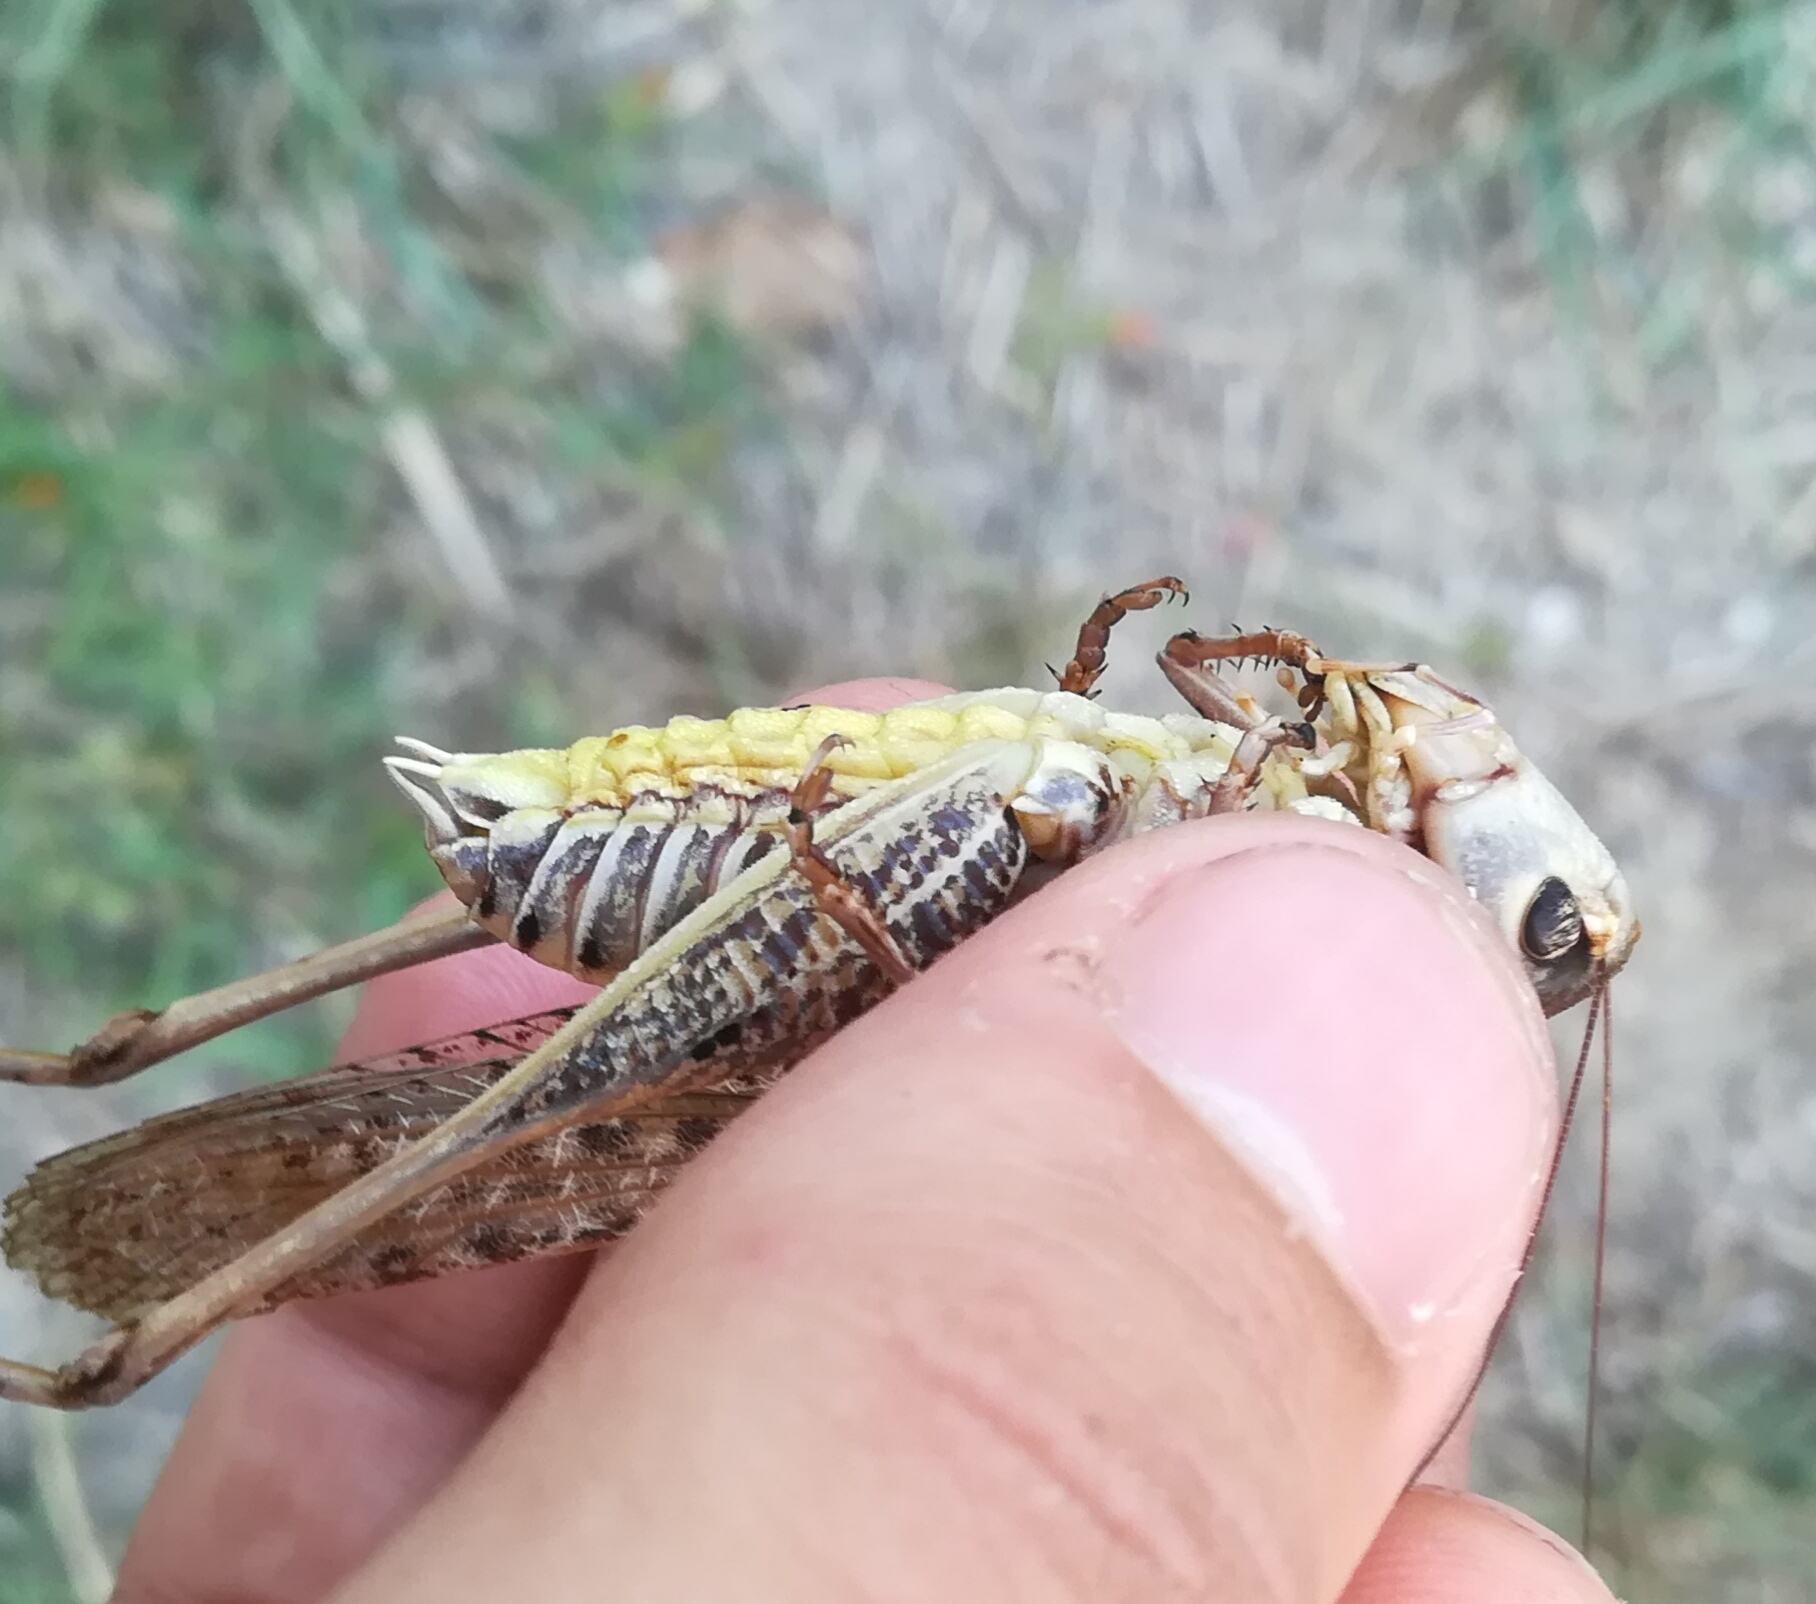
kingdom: Animalia
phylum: Arthropoda
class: Insecta
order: Orthoptera
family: Tettigoniidae
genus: Decticus
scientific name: Decticus albifrons
